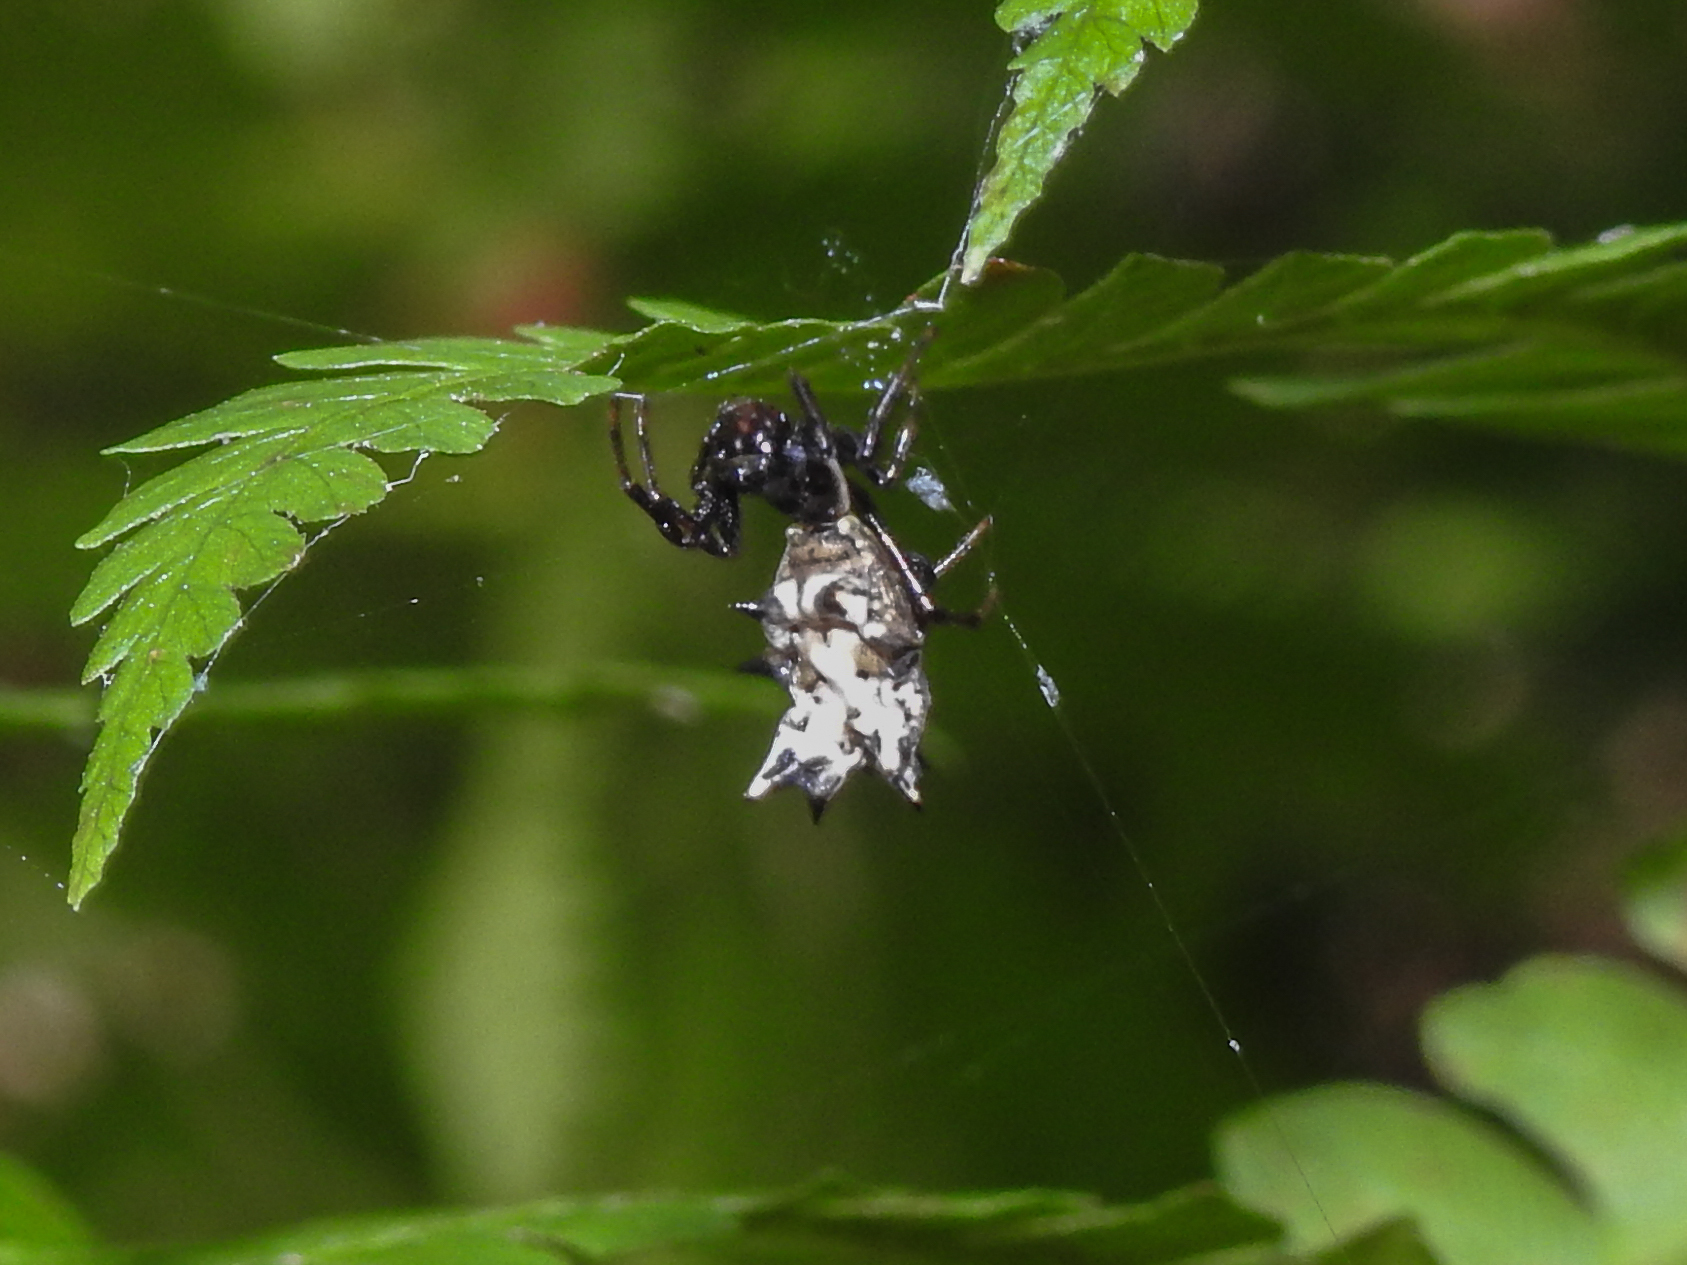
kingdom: Animalia
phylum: Arthropoda
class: Arachnida
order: Araneae
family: Araneidae
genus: Micrathena
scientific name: Micrathena gracilis
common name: Orb weavers
